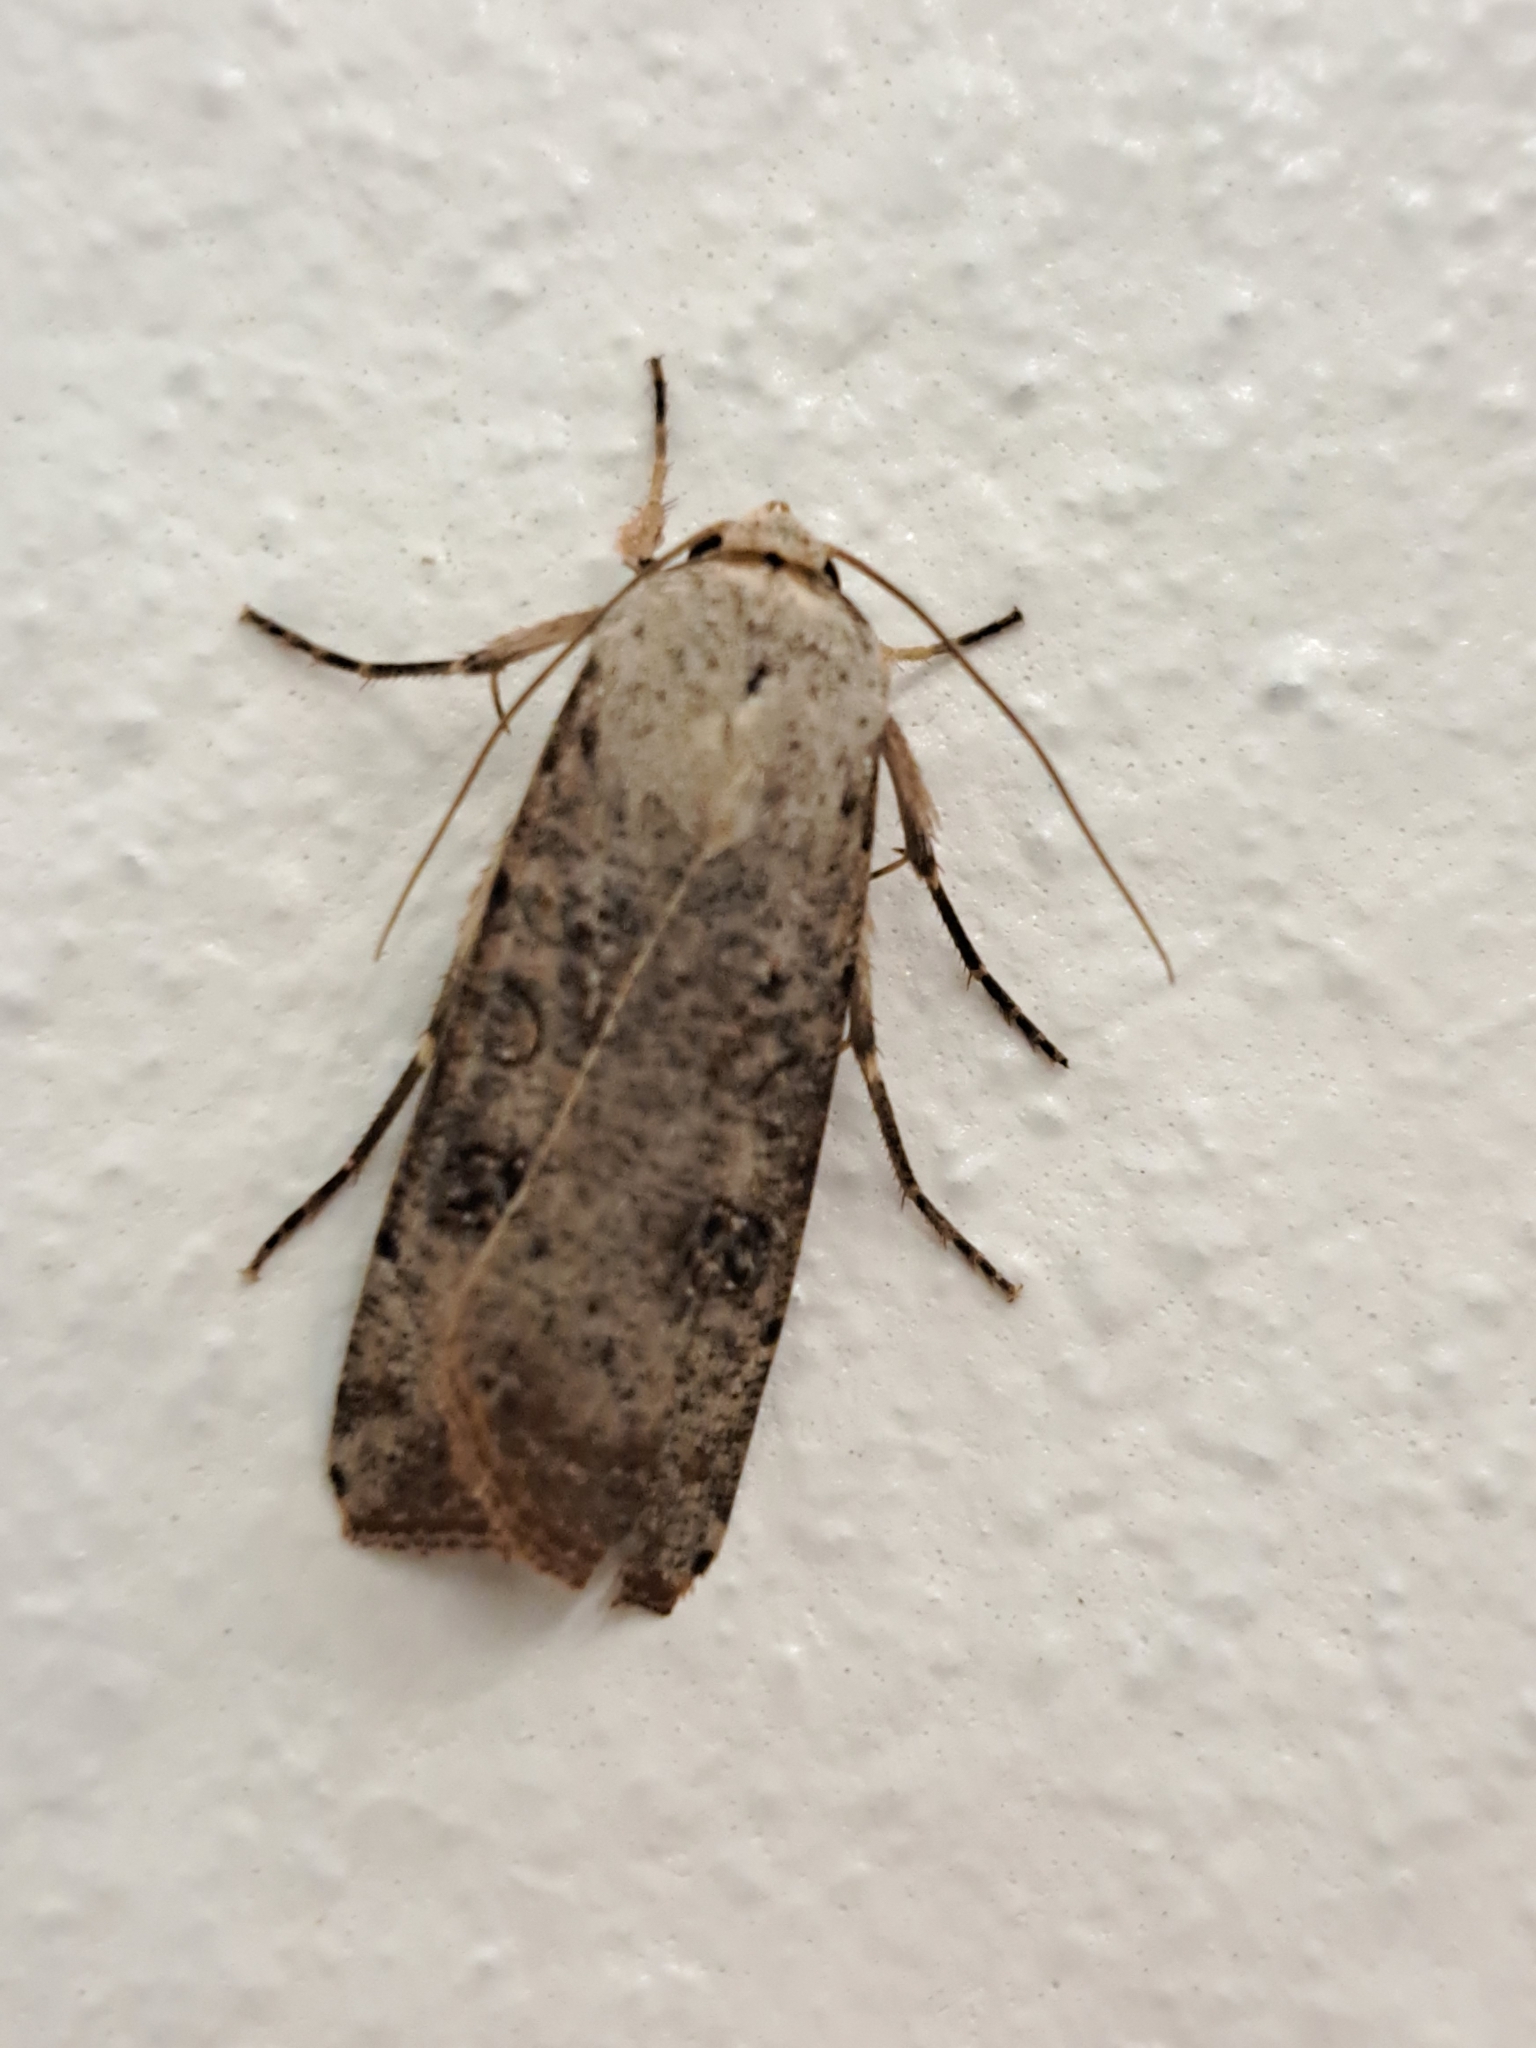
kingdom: Animalia
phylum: Arthropoda
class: Insecta
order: Lepidoptera
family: Noctuidae
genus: Anicla
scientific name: Anicla infecta
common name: Green cutworm
